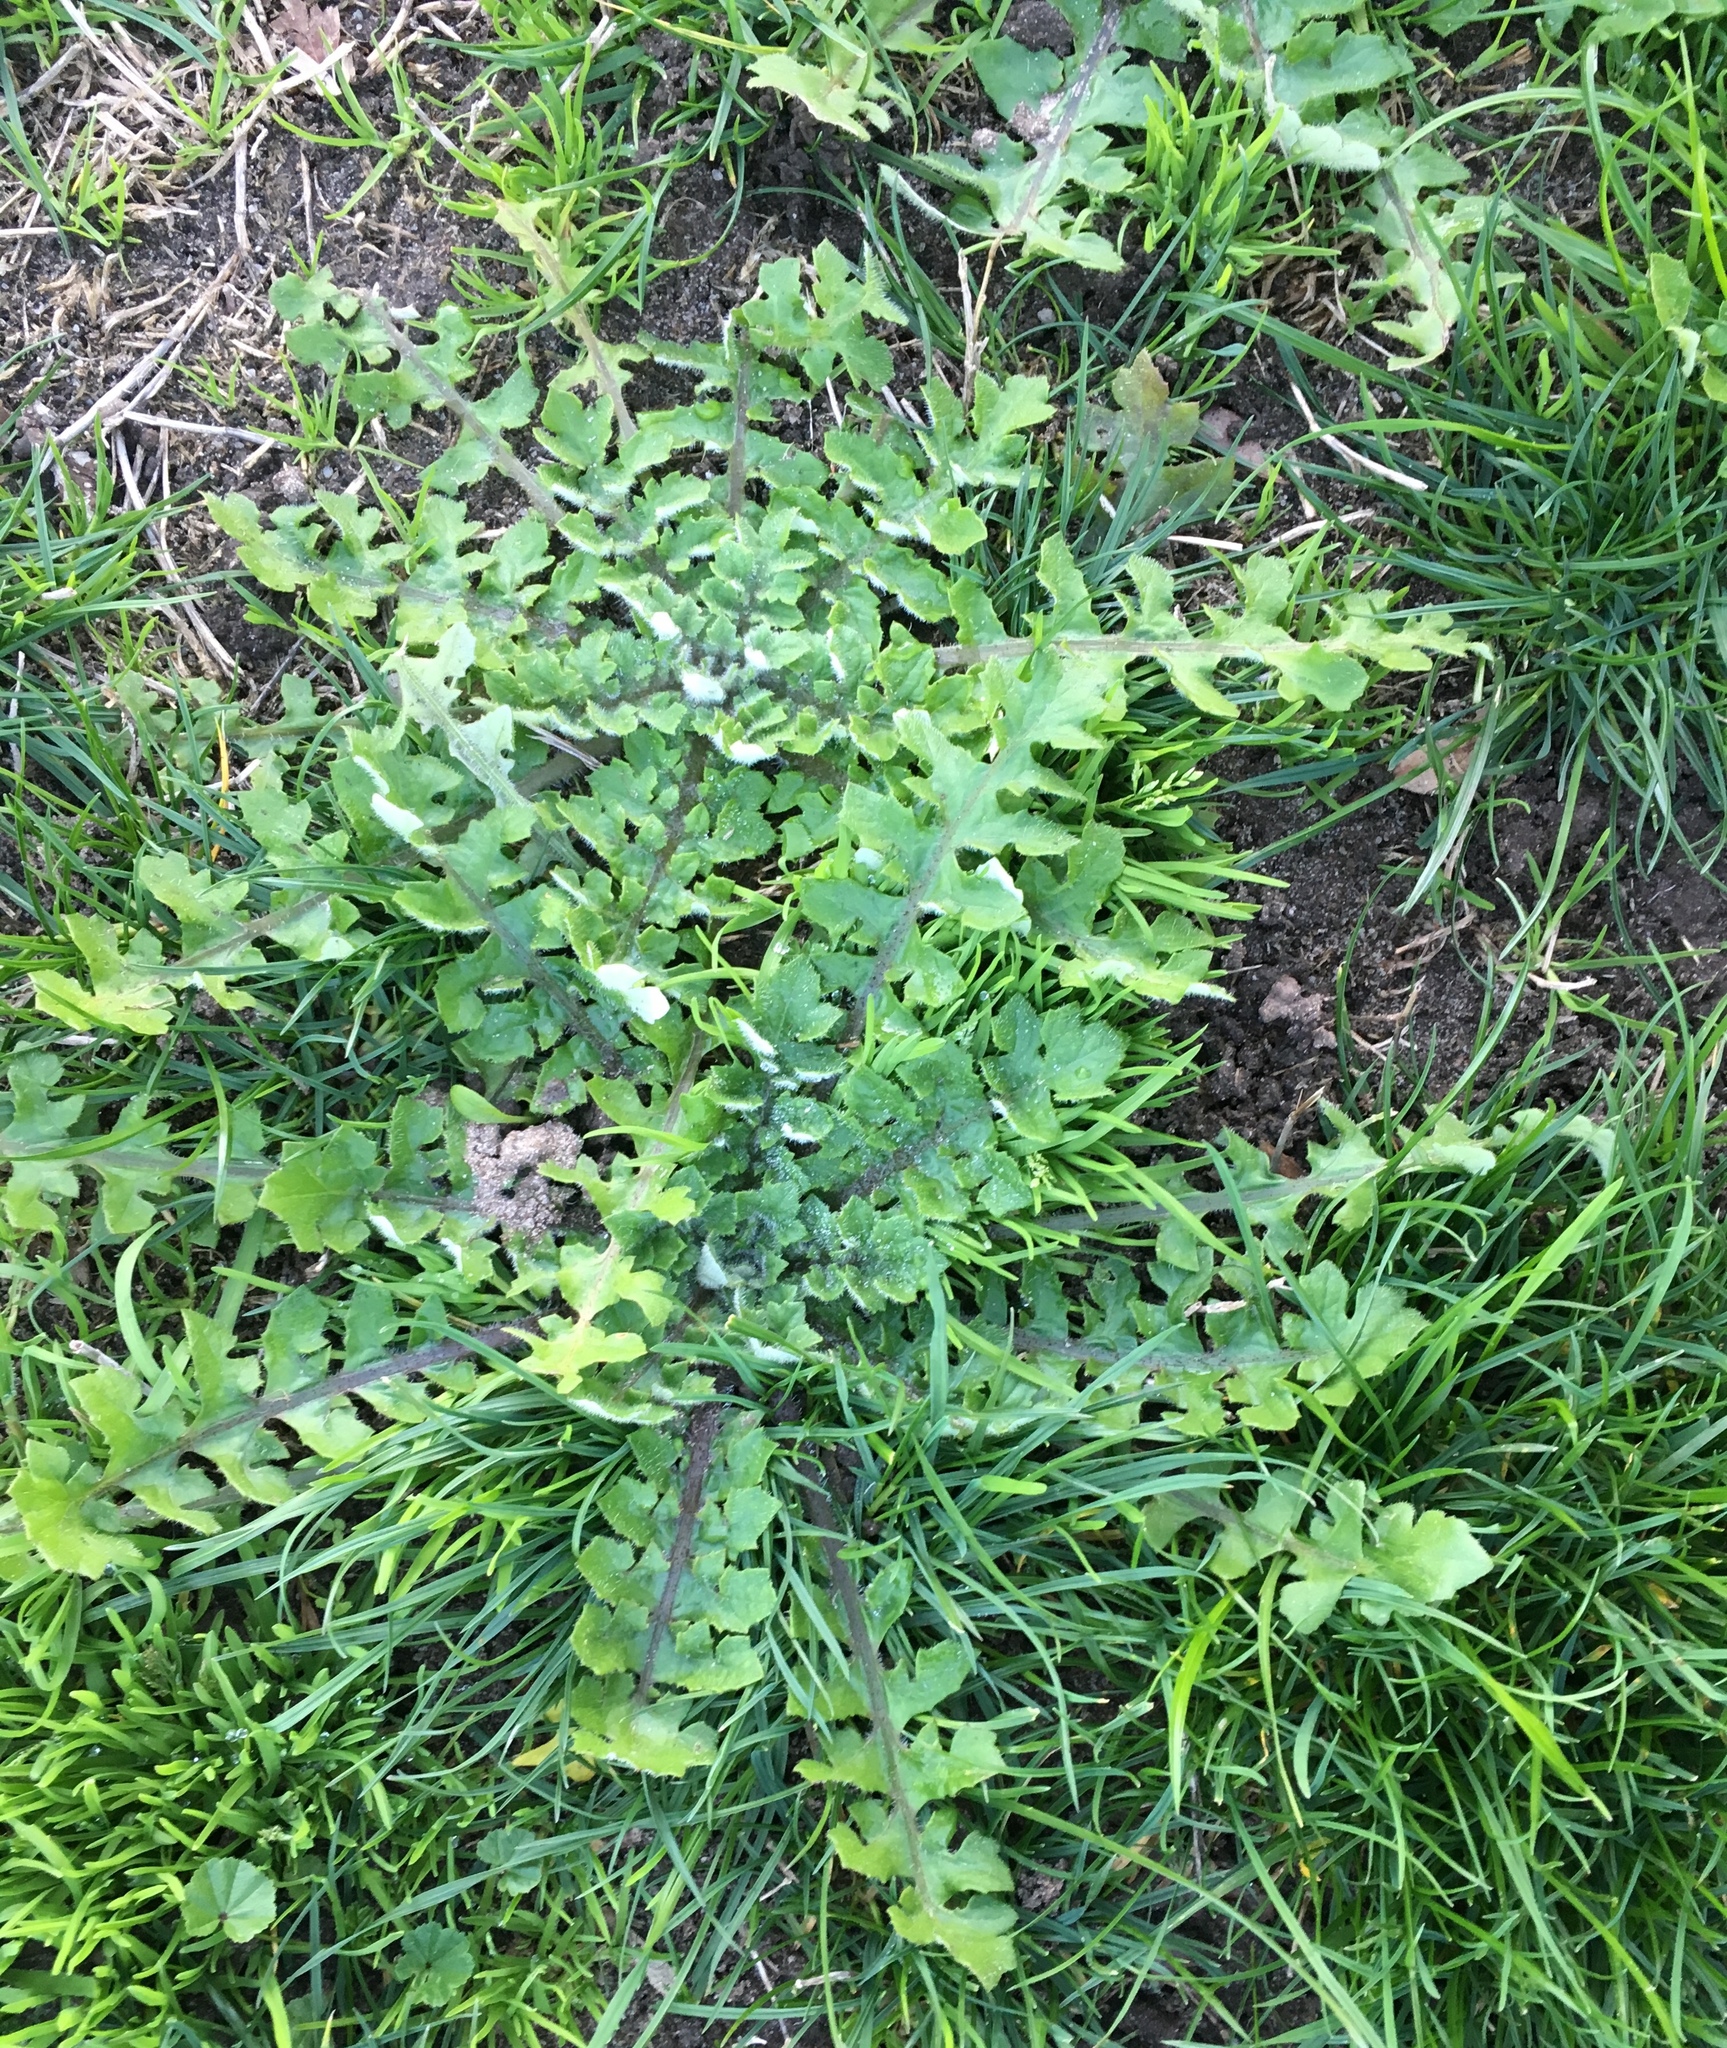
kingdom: Plantae
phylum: Tracheophyta
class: Magnoliopsida
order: Asterales
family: Asteraceae
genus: Arctotheca
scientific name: Arctotheca calendula
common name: Capeweed
